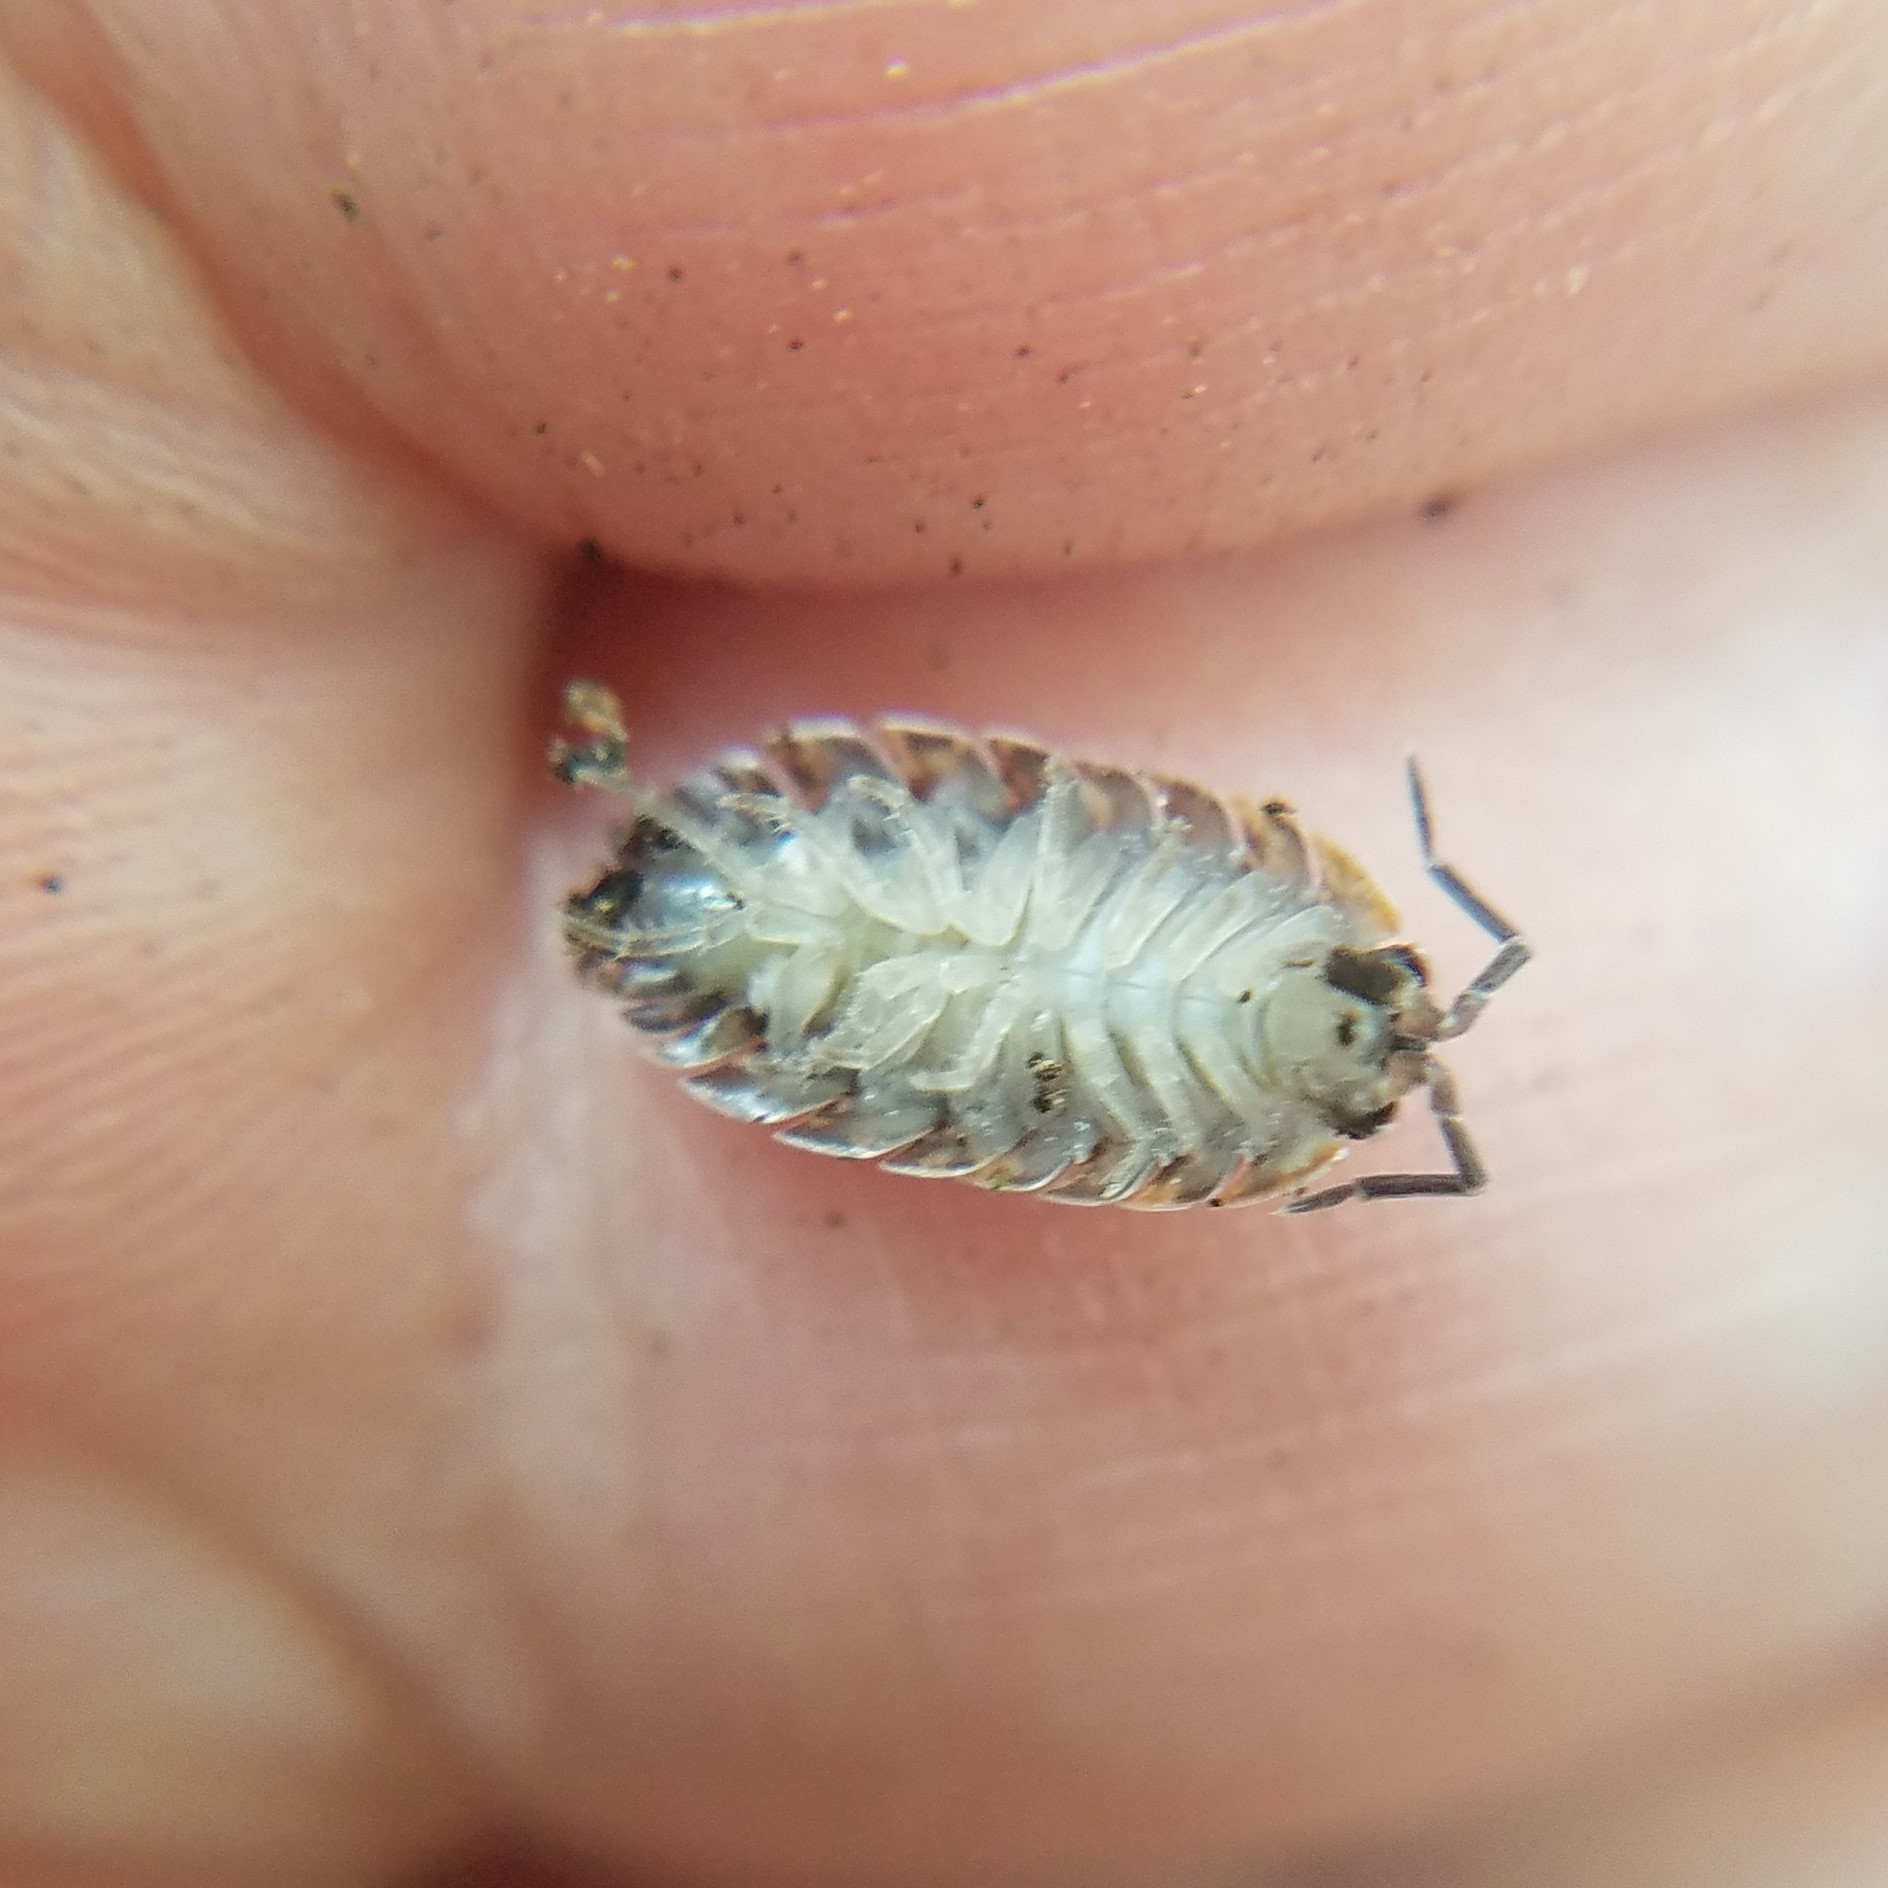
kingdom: Animalia
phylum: Arthropoda
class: Malacostraca
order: Isopoda
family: Porcellionidae
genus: Porcellio
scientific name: Porcellio scaber
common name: Common rough woodlouse
